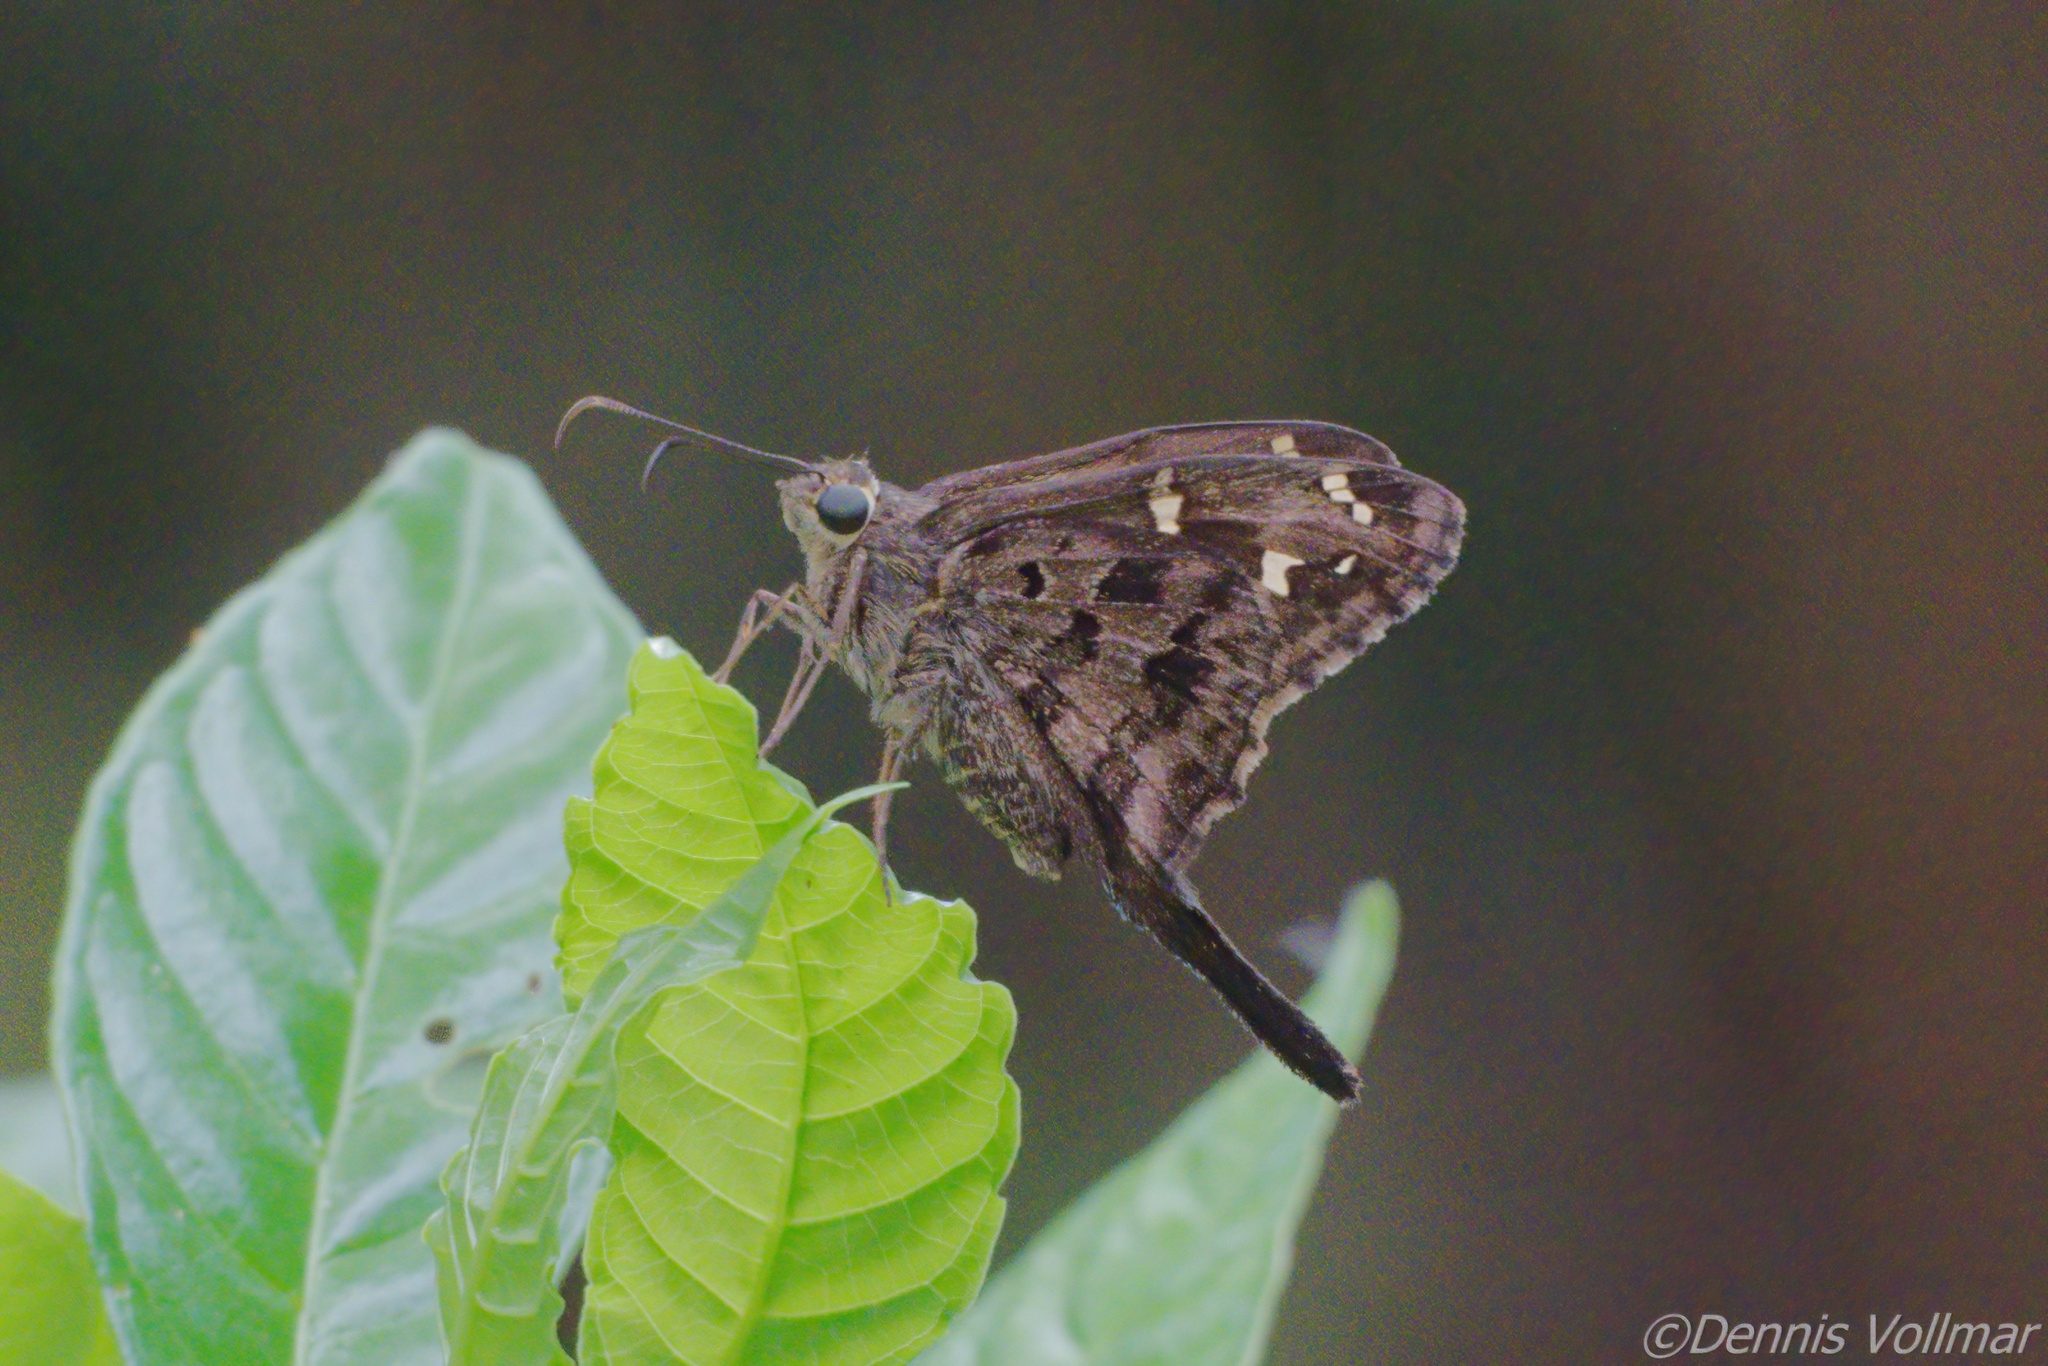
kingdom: Animalia
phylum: Arthropoda
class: Insecta
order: Lepidoptera
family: Hesperiidae
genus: Thorybes
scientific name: Thorybes
